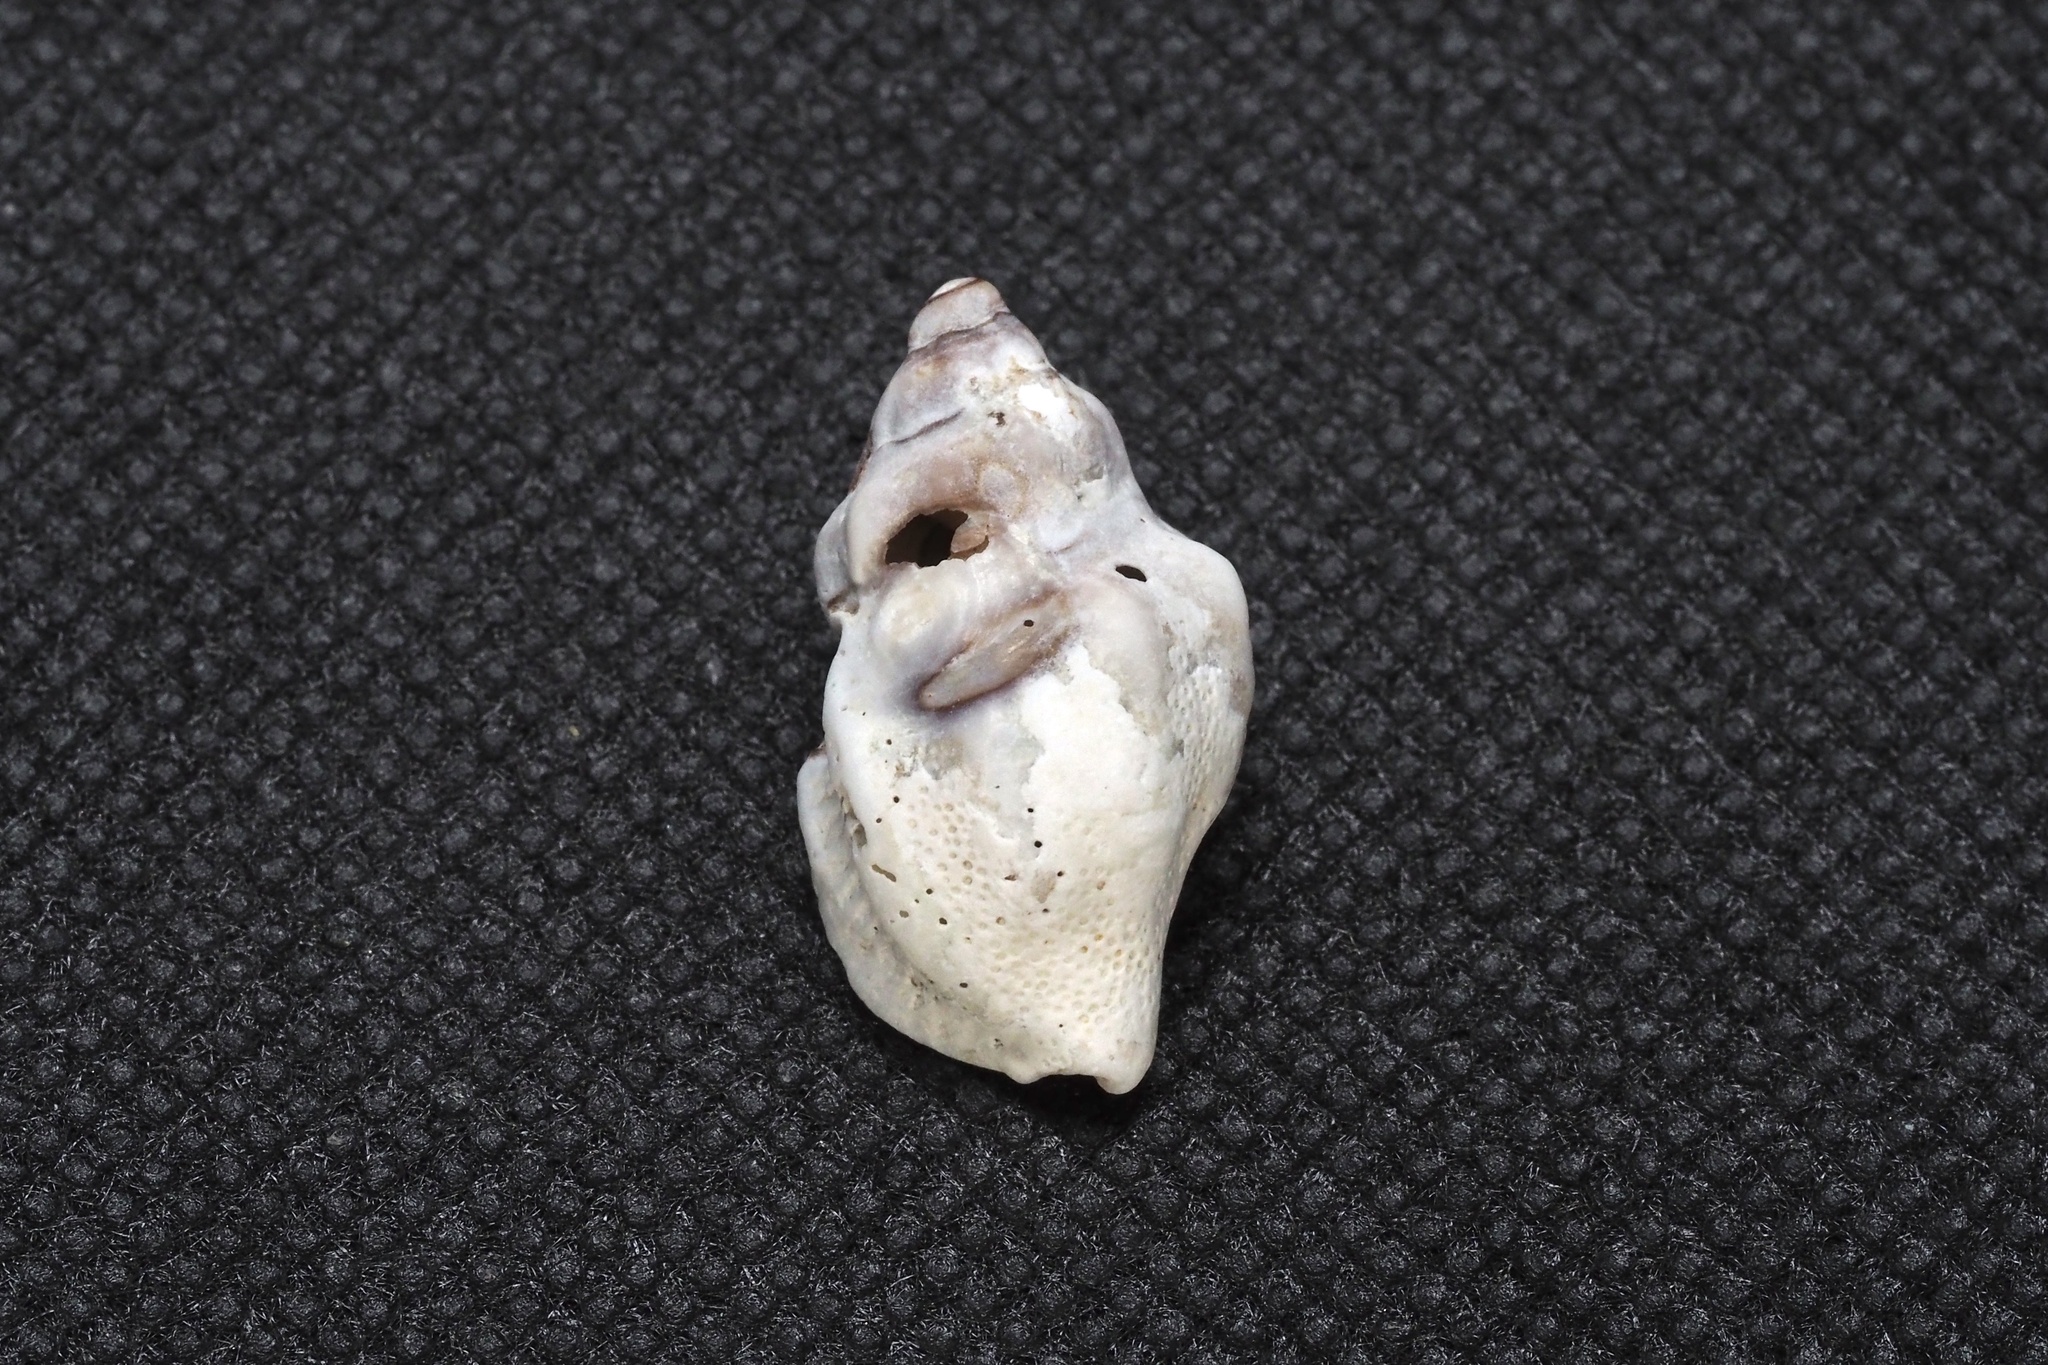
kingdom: Animalia
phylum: Mollusca
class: Gastropoda
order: Neogastropoda
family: Muricidae
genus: Ergalatax
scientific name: Ergalatax contracta
